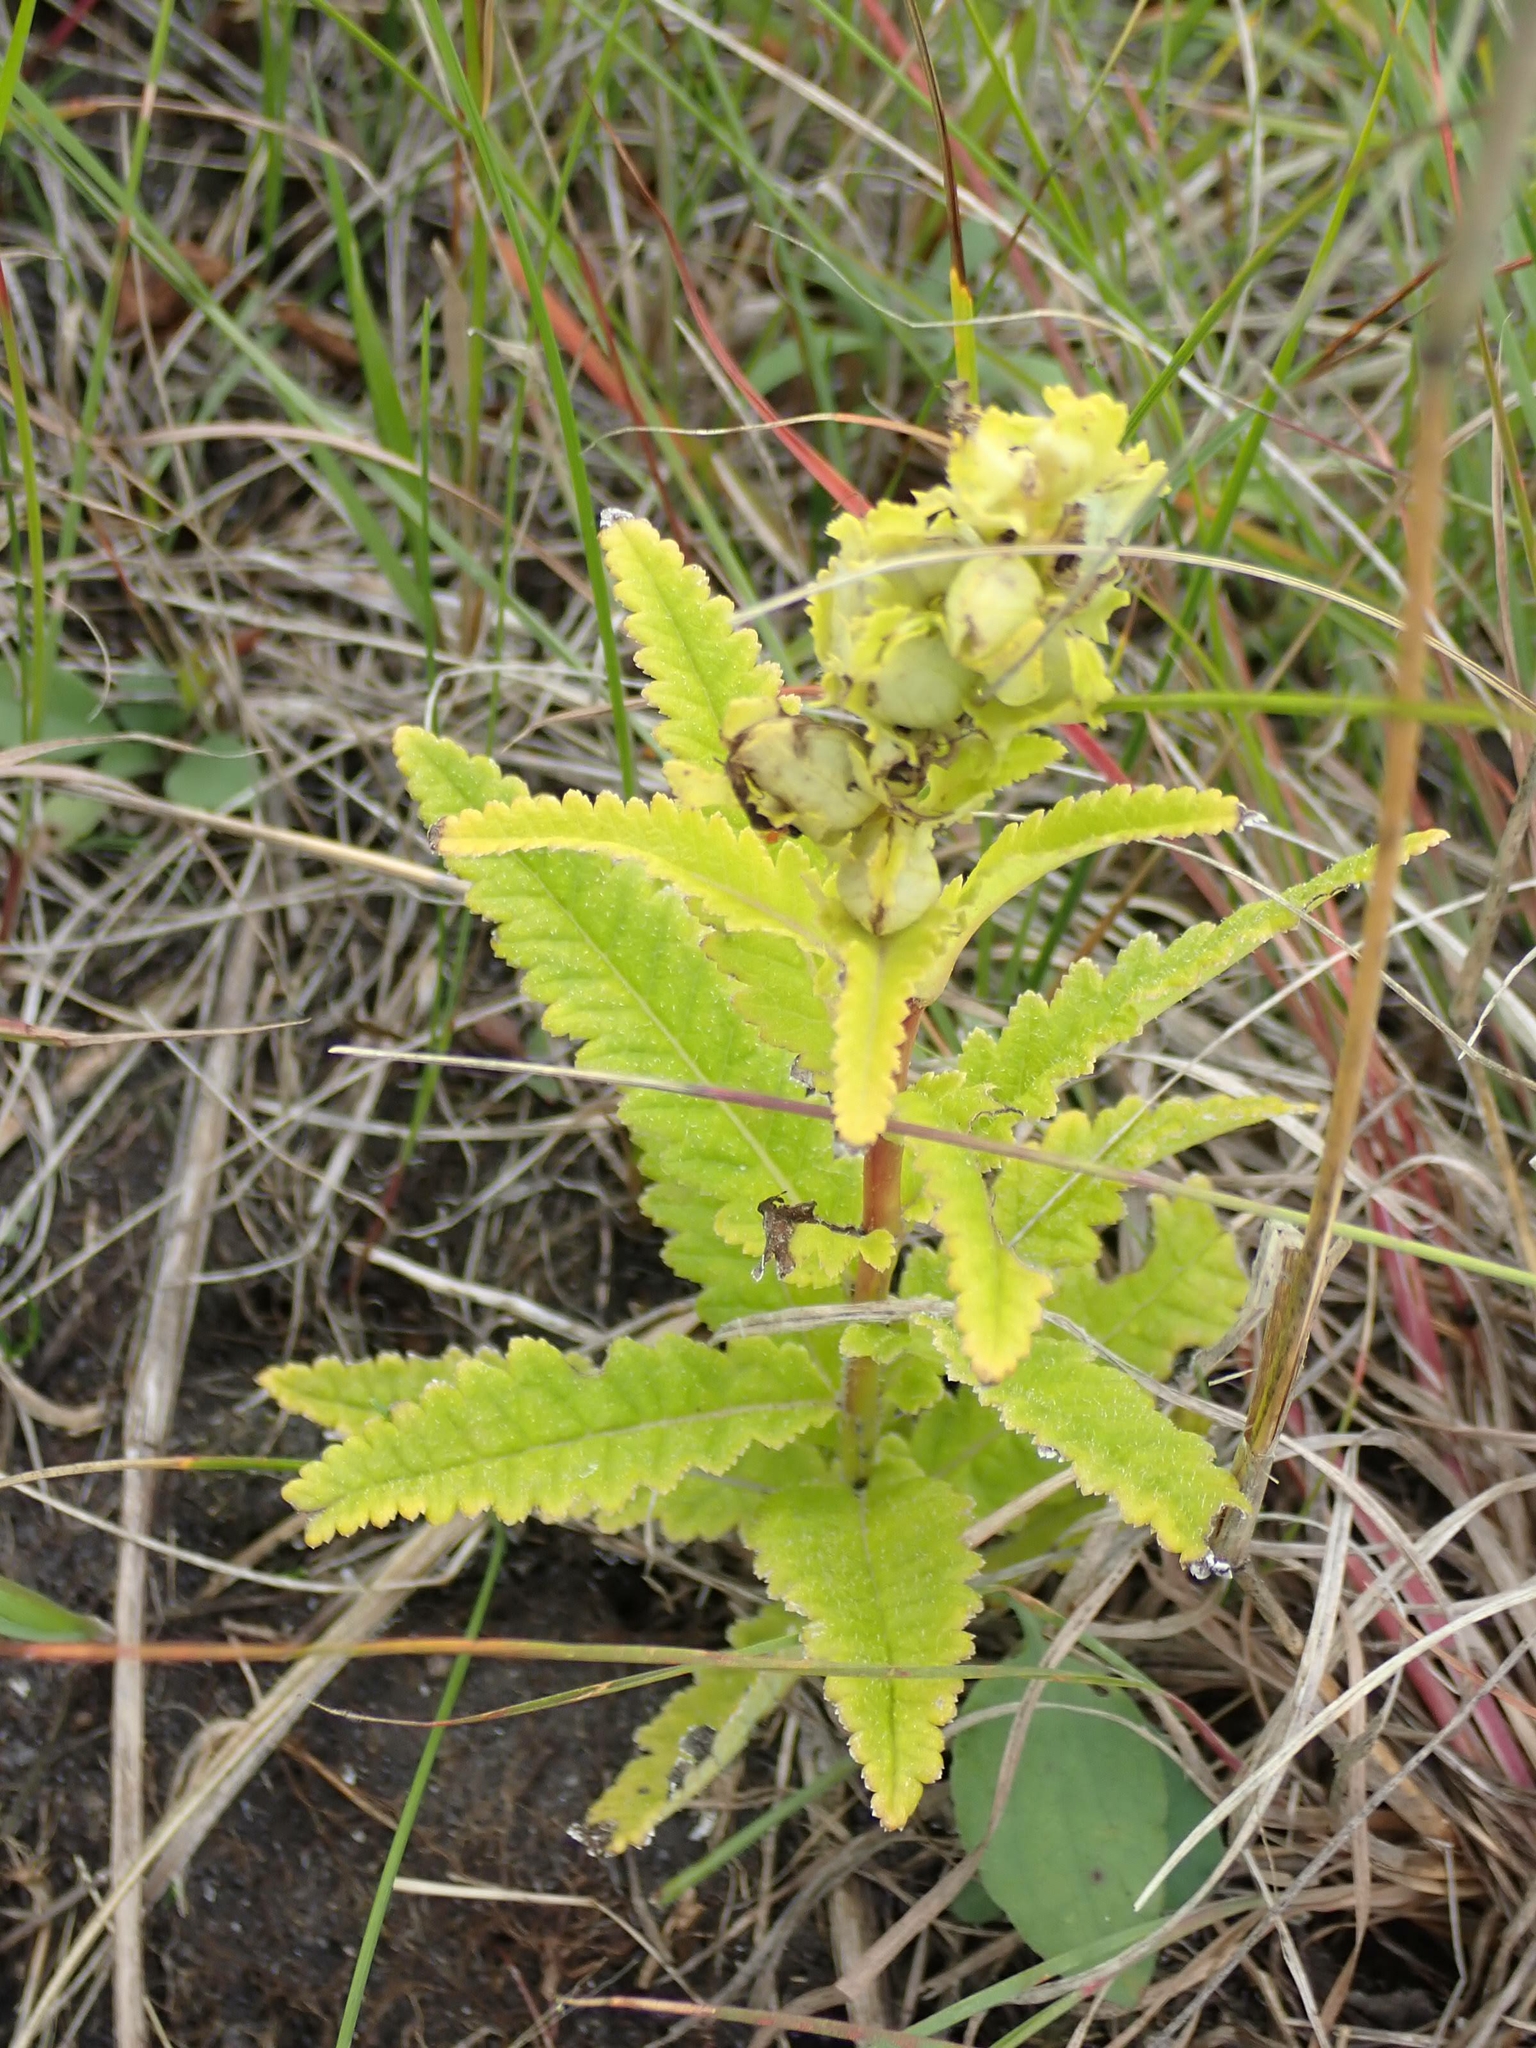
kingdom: Plantae
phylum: Tracheophyta
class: Magnoliopsida
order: Lamiales
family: Orobanchaceae
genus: Pedicularis
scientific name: Pedicularis lanceolata
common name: Swamp lousewort
